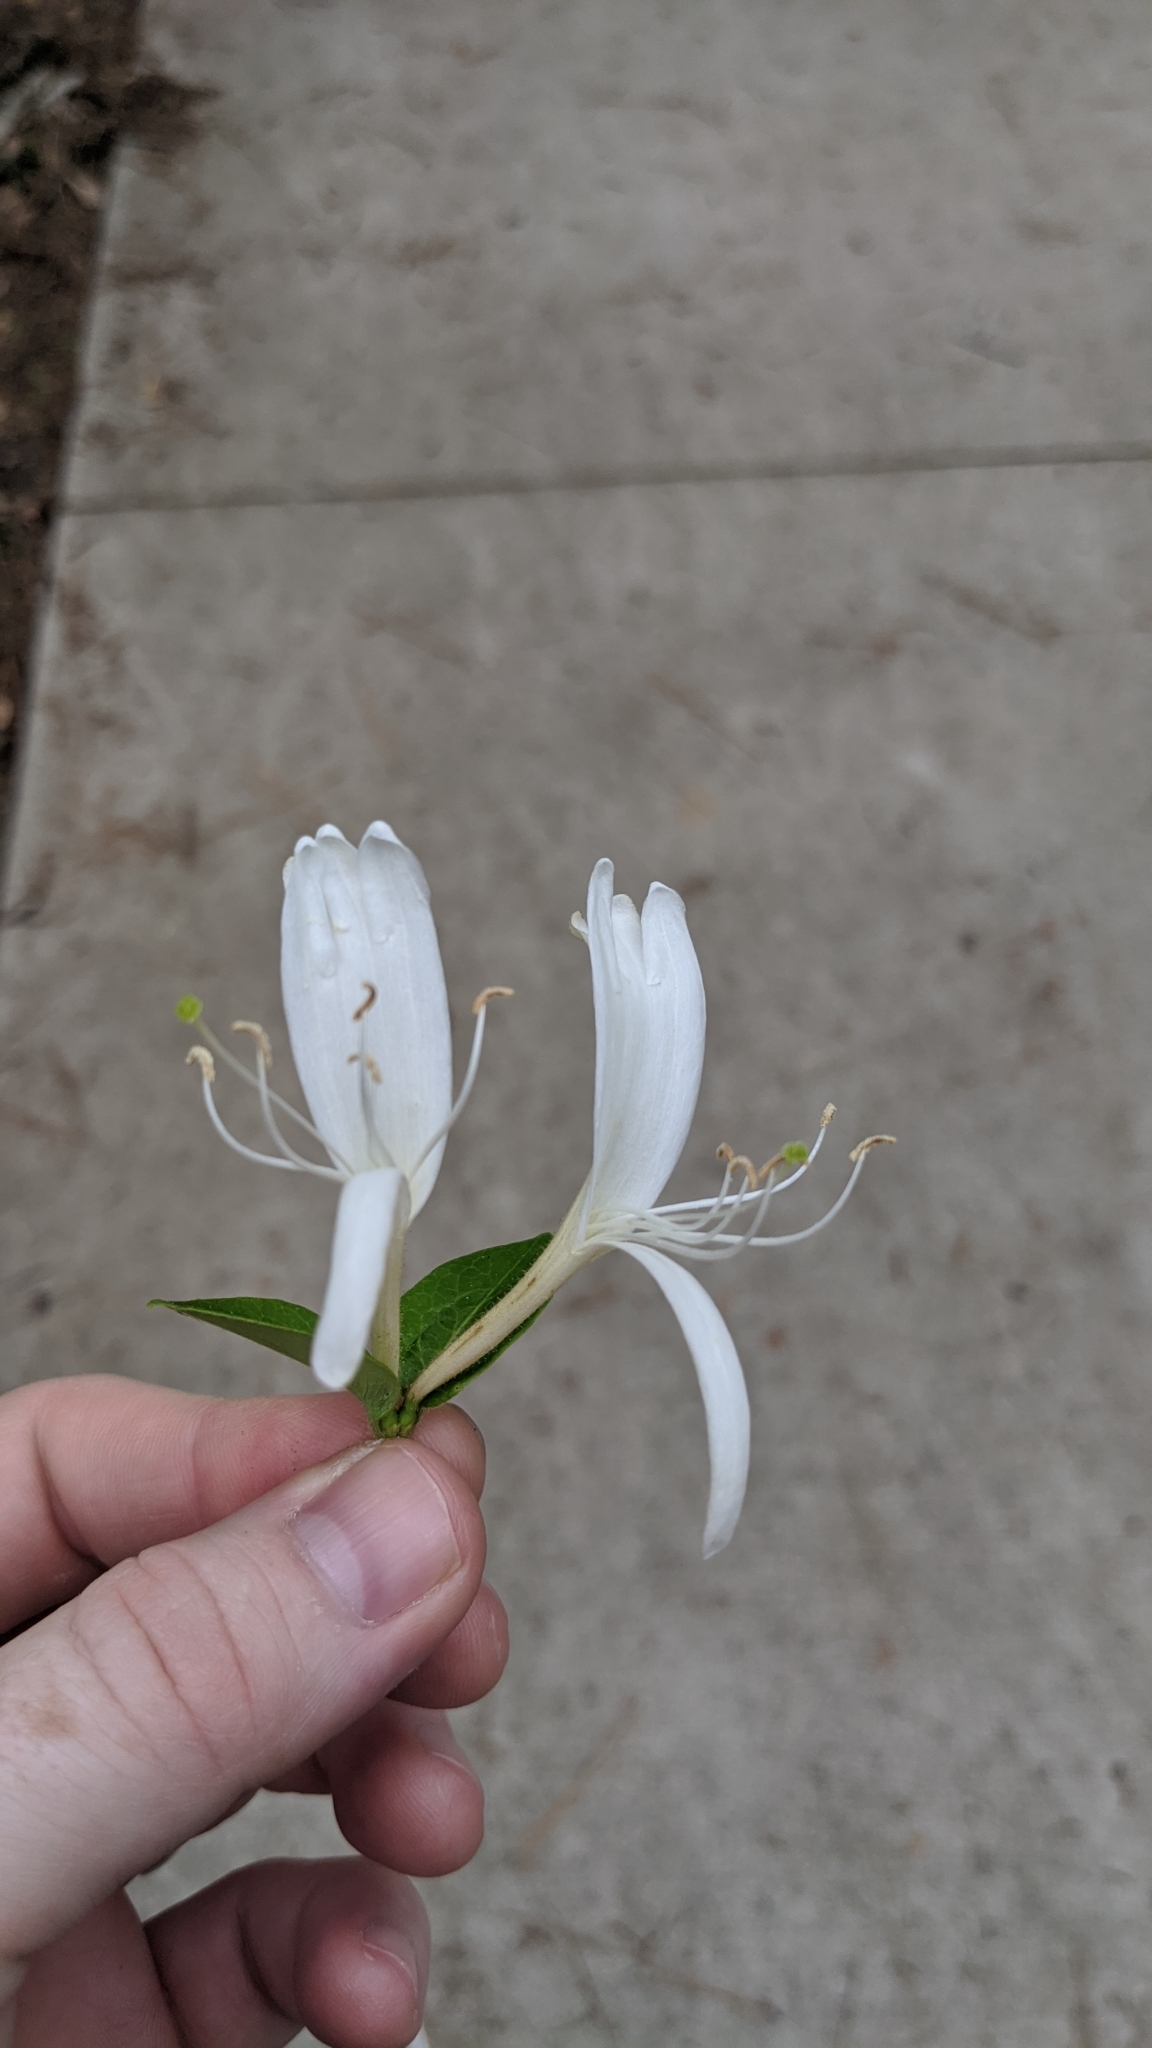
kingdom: Plantae
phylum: Tracheophyta
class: Magnoliopsida
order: Dipsacales
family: Caprifoliaceae
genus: Lonicera
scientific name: Lonicera japonica
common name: Japanese honeysuckle
